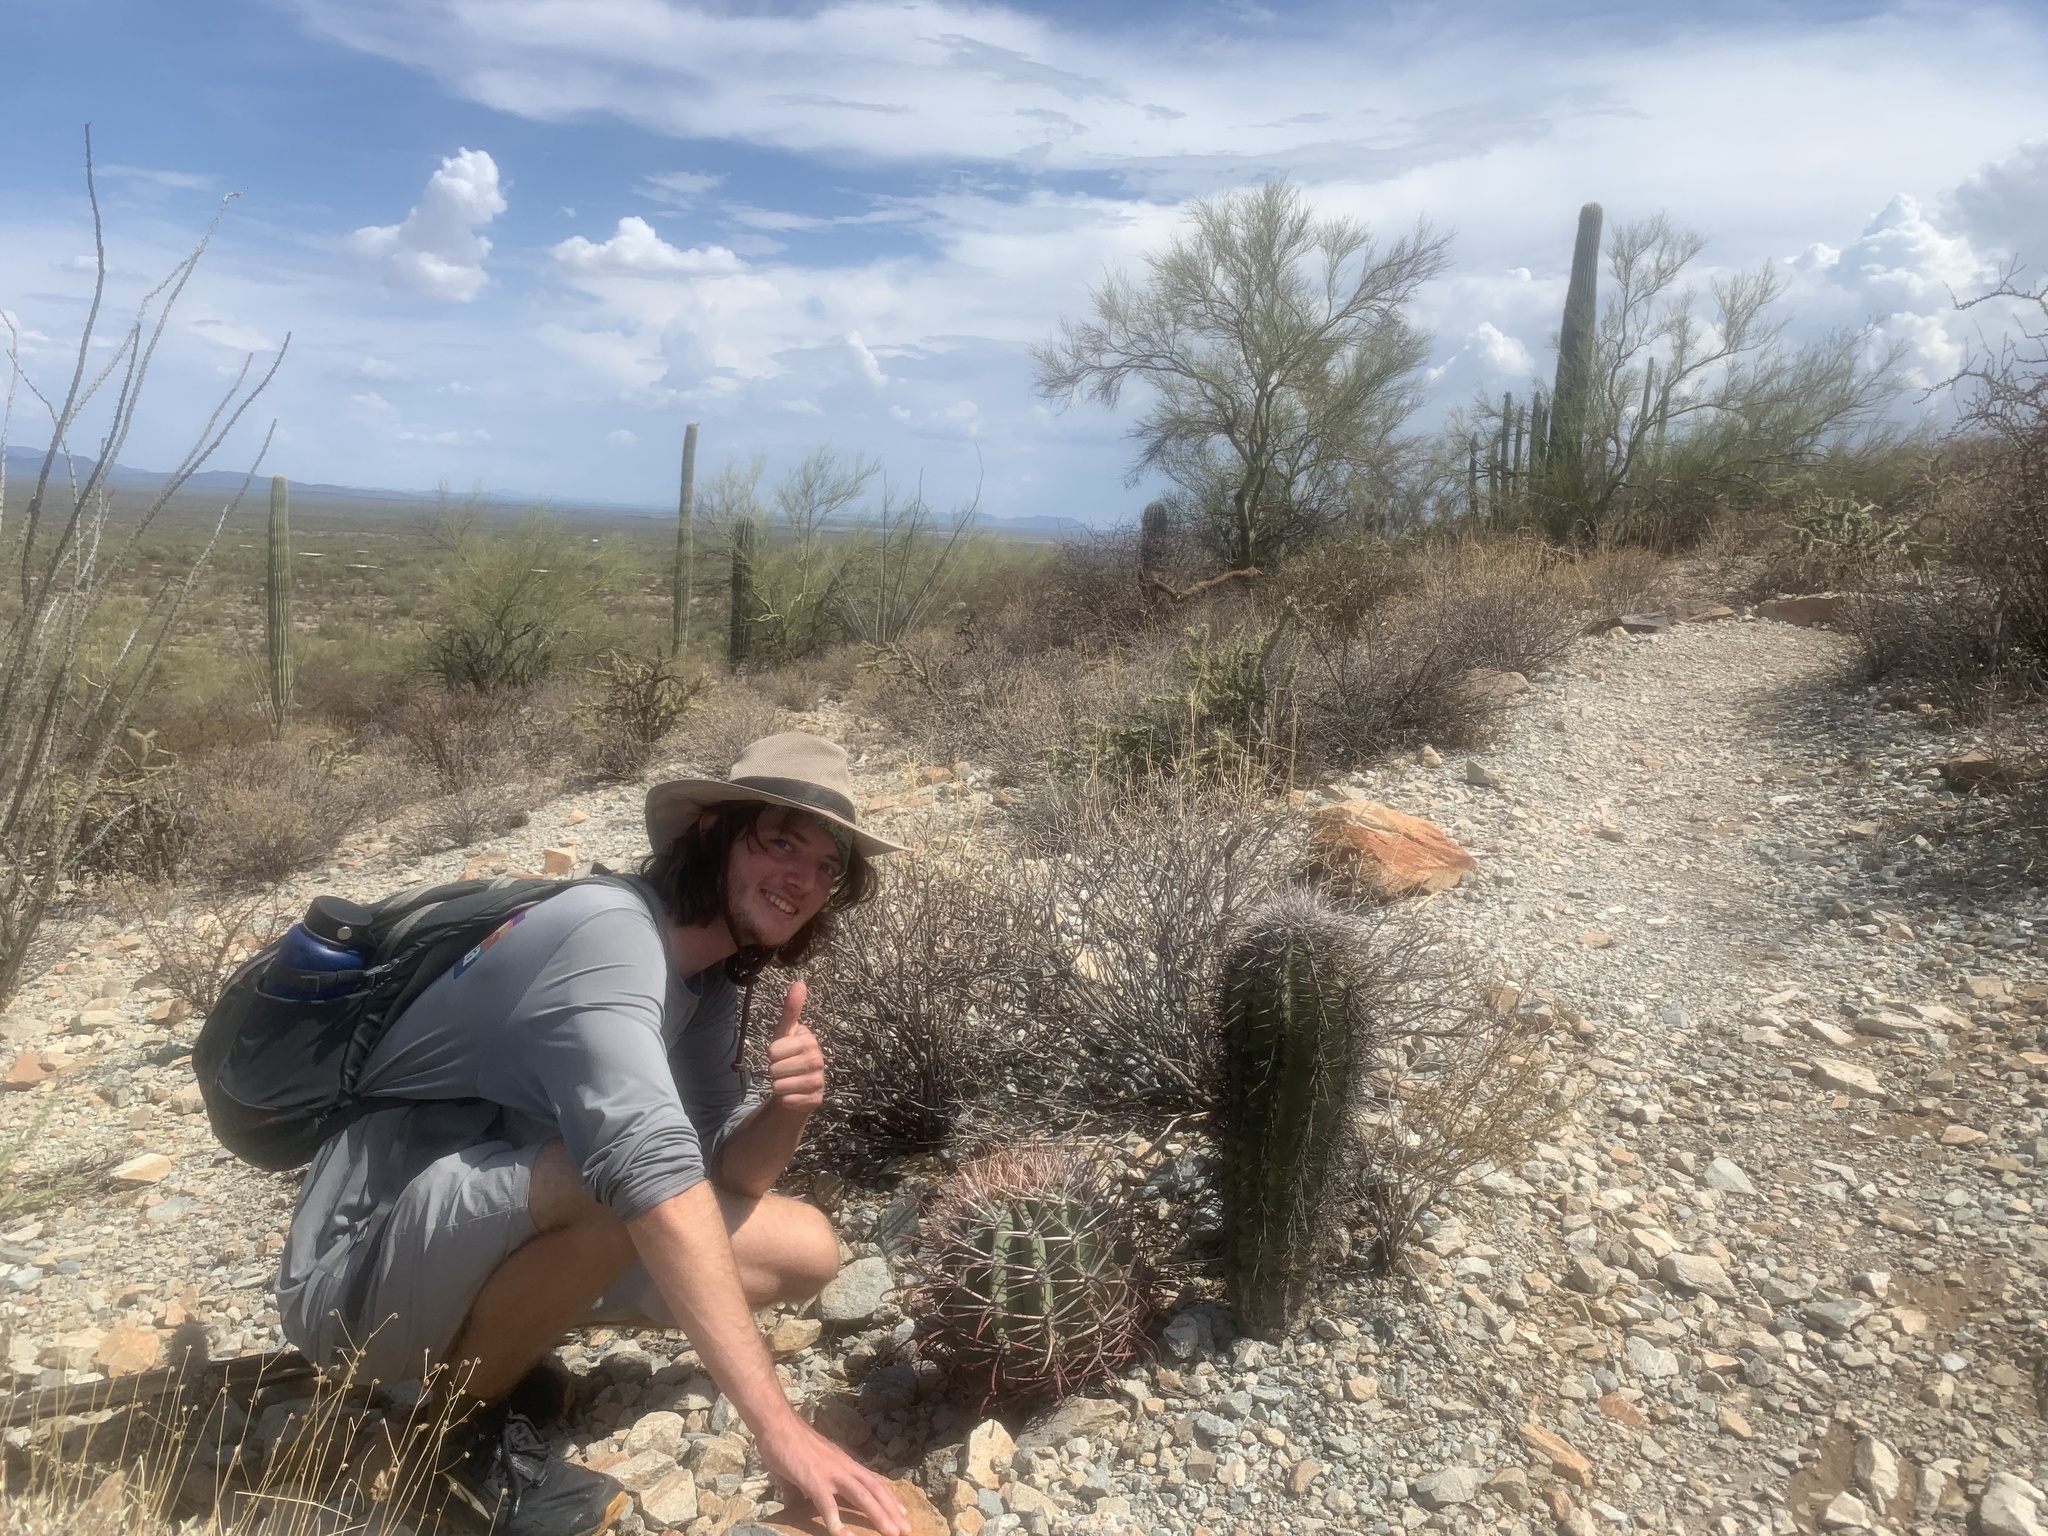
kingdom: Plantae
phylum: Tracheophyta
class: Magnoliopsida
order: Caryophyllales
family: Cactaceae
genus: Ferocactus
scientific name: Ferocactus emoryi
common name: Emory's barrel cactus
